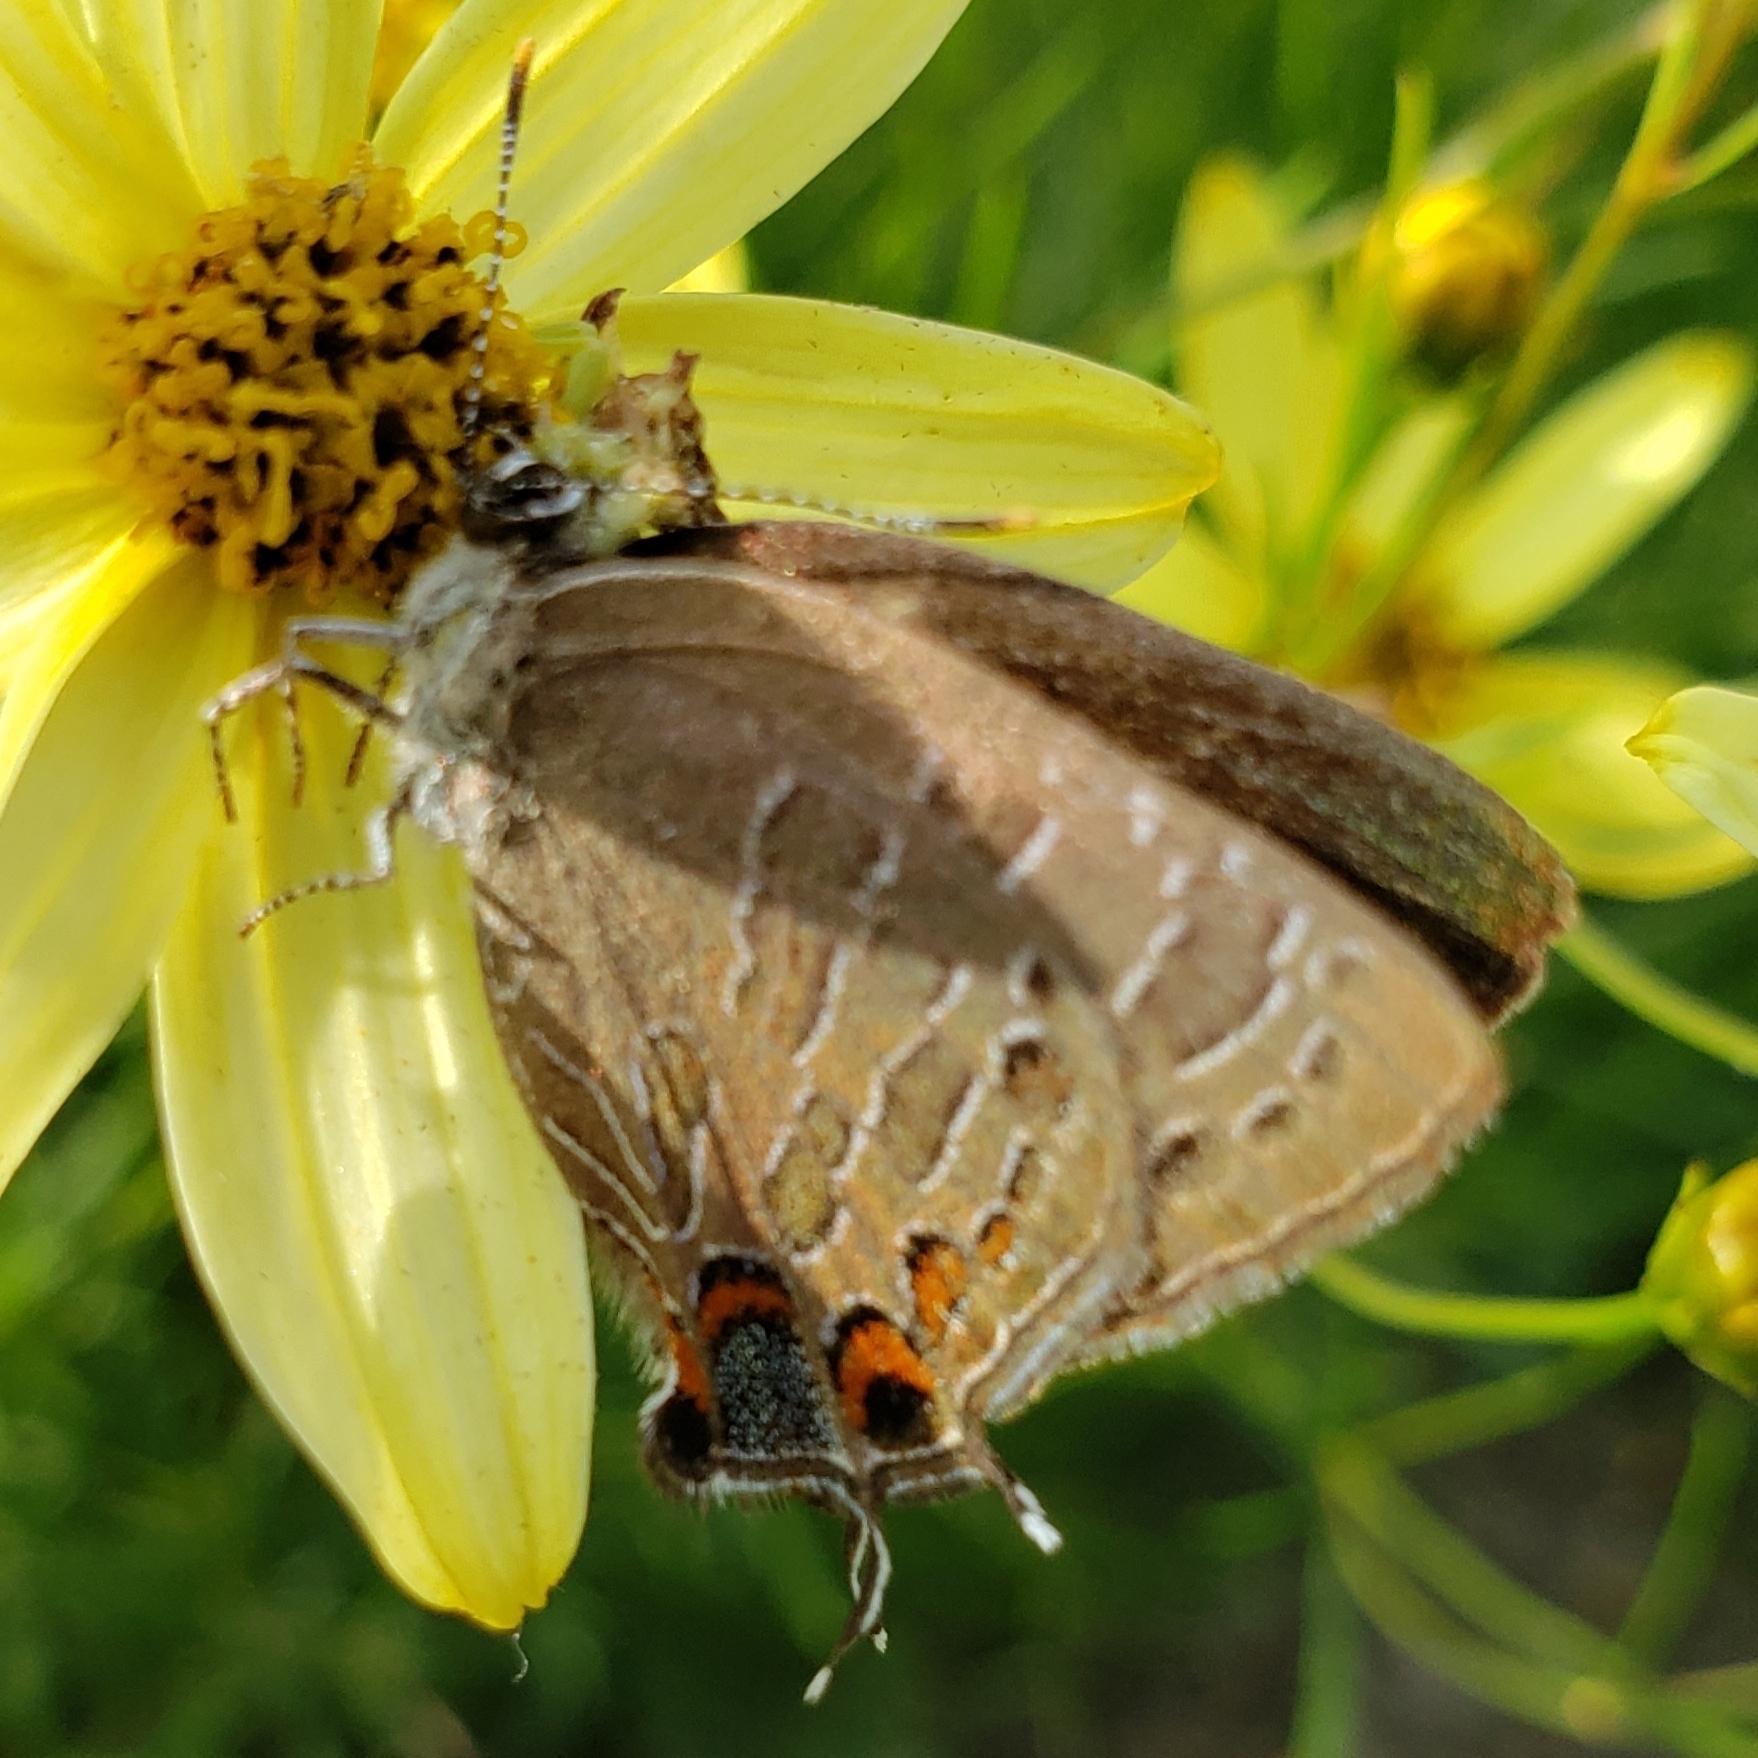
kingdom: Animalia
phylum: Arthropoda
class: Insecta
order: Lepidoptera
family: Lycaenidae
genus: Satyrium
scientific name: Satyrium liparops
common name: Striped hairstreak
